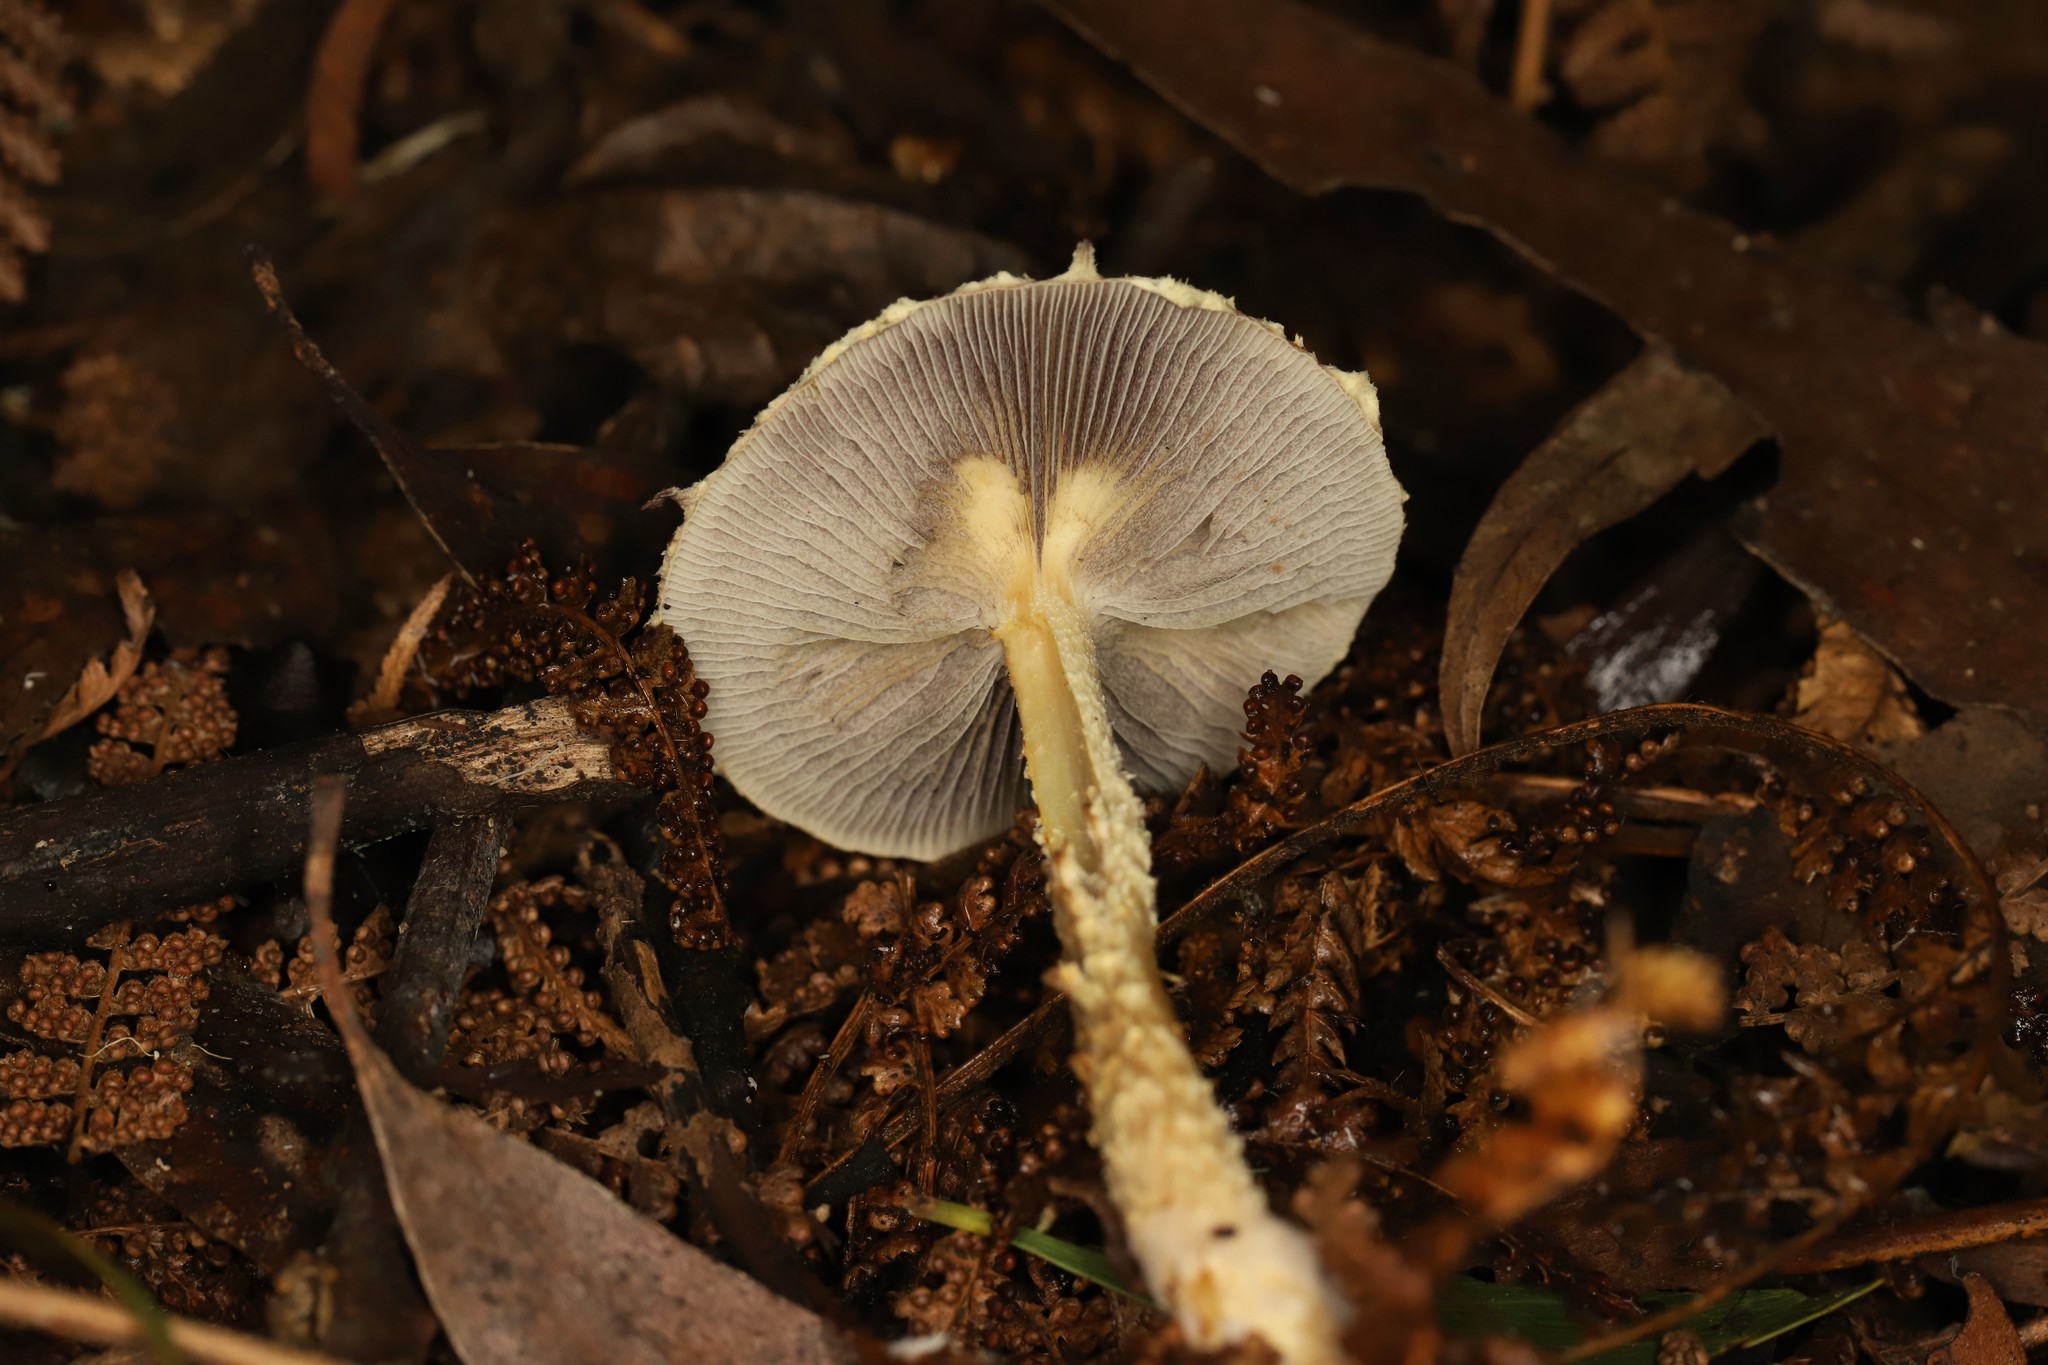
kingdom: Fungi
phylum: Basidiomycota
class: Agaricomycetes
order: Agaricales
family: Hymenogastraceae
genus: Psilocybe
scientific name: Psilocybe formosa
